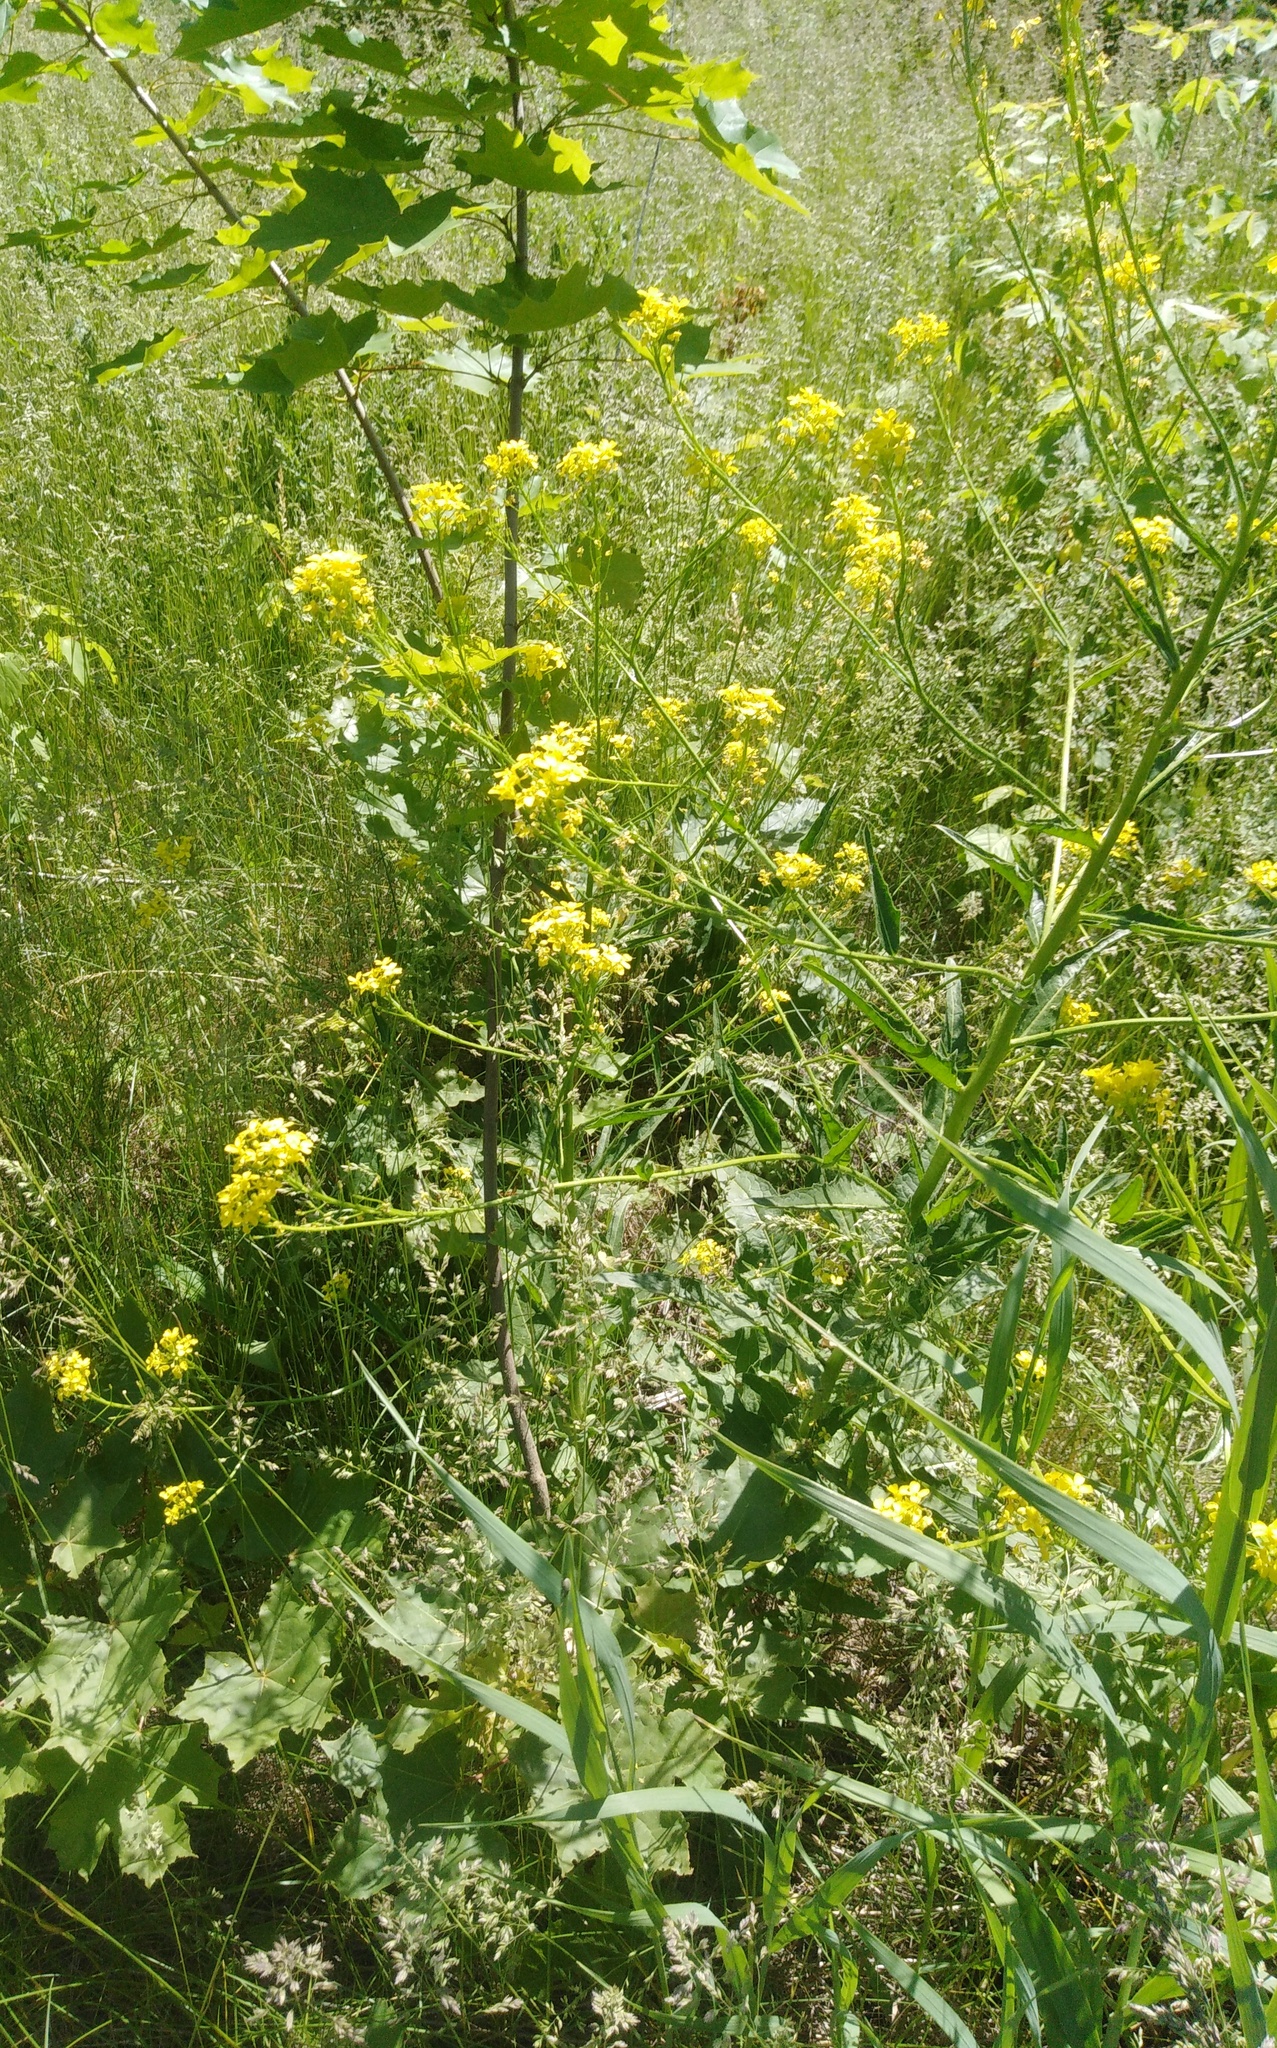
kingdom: Plantae
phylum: Tracheophyta
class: Magnoliopsida
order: Brassicales
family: Brassicaceae
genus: Bunias
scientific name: Bunias orientalis
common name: Warty-cabbage
